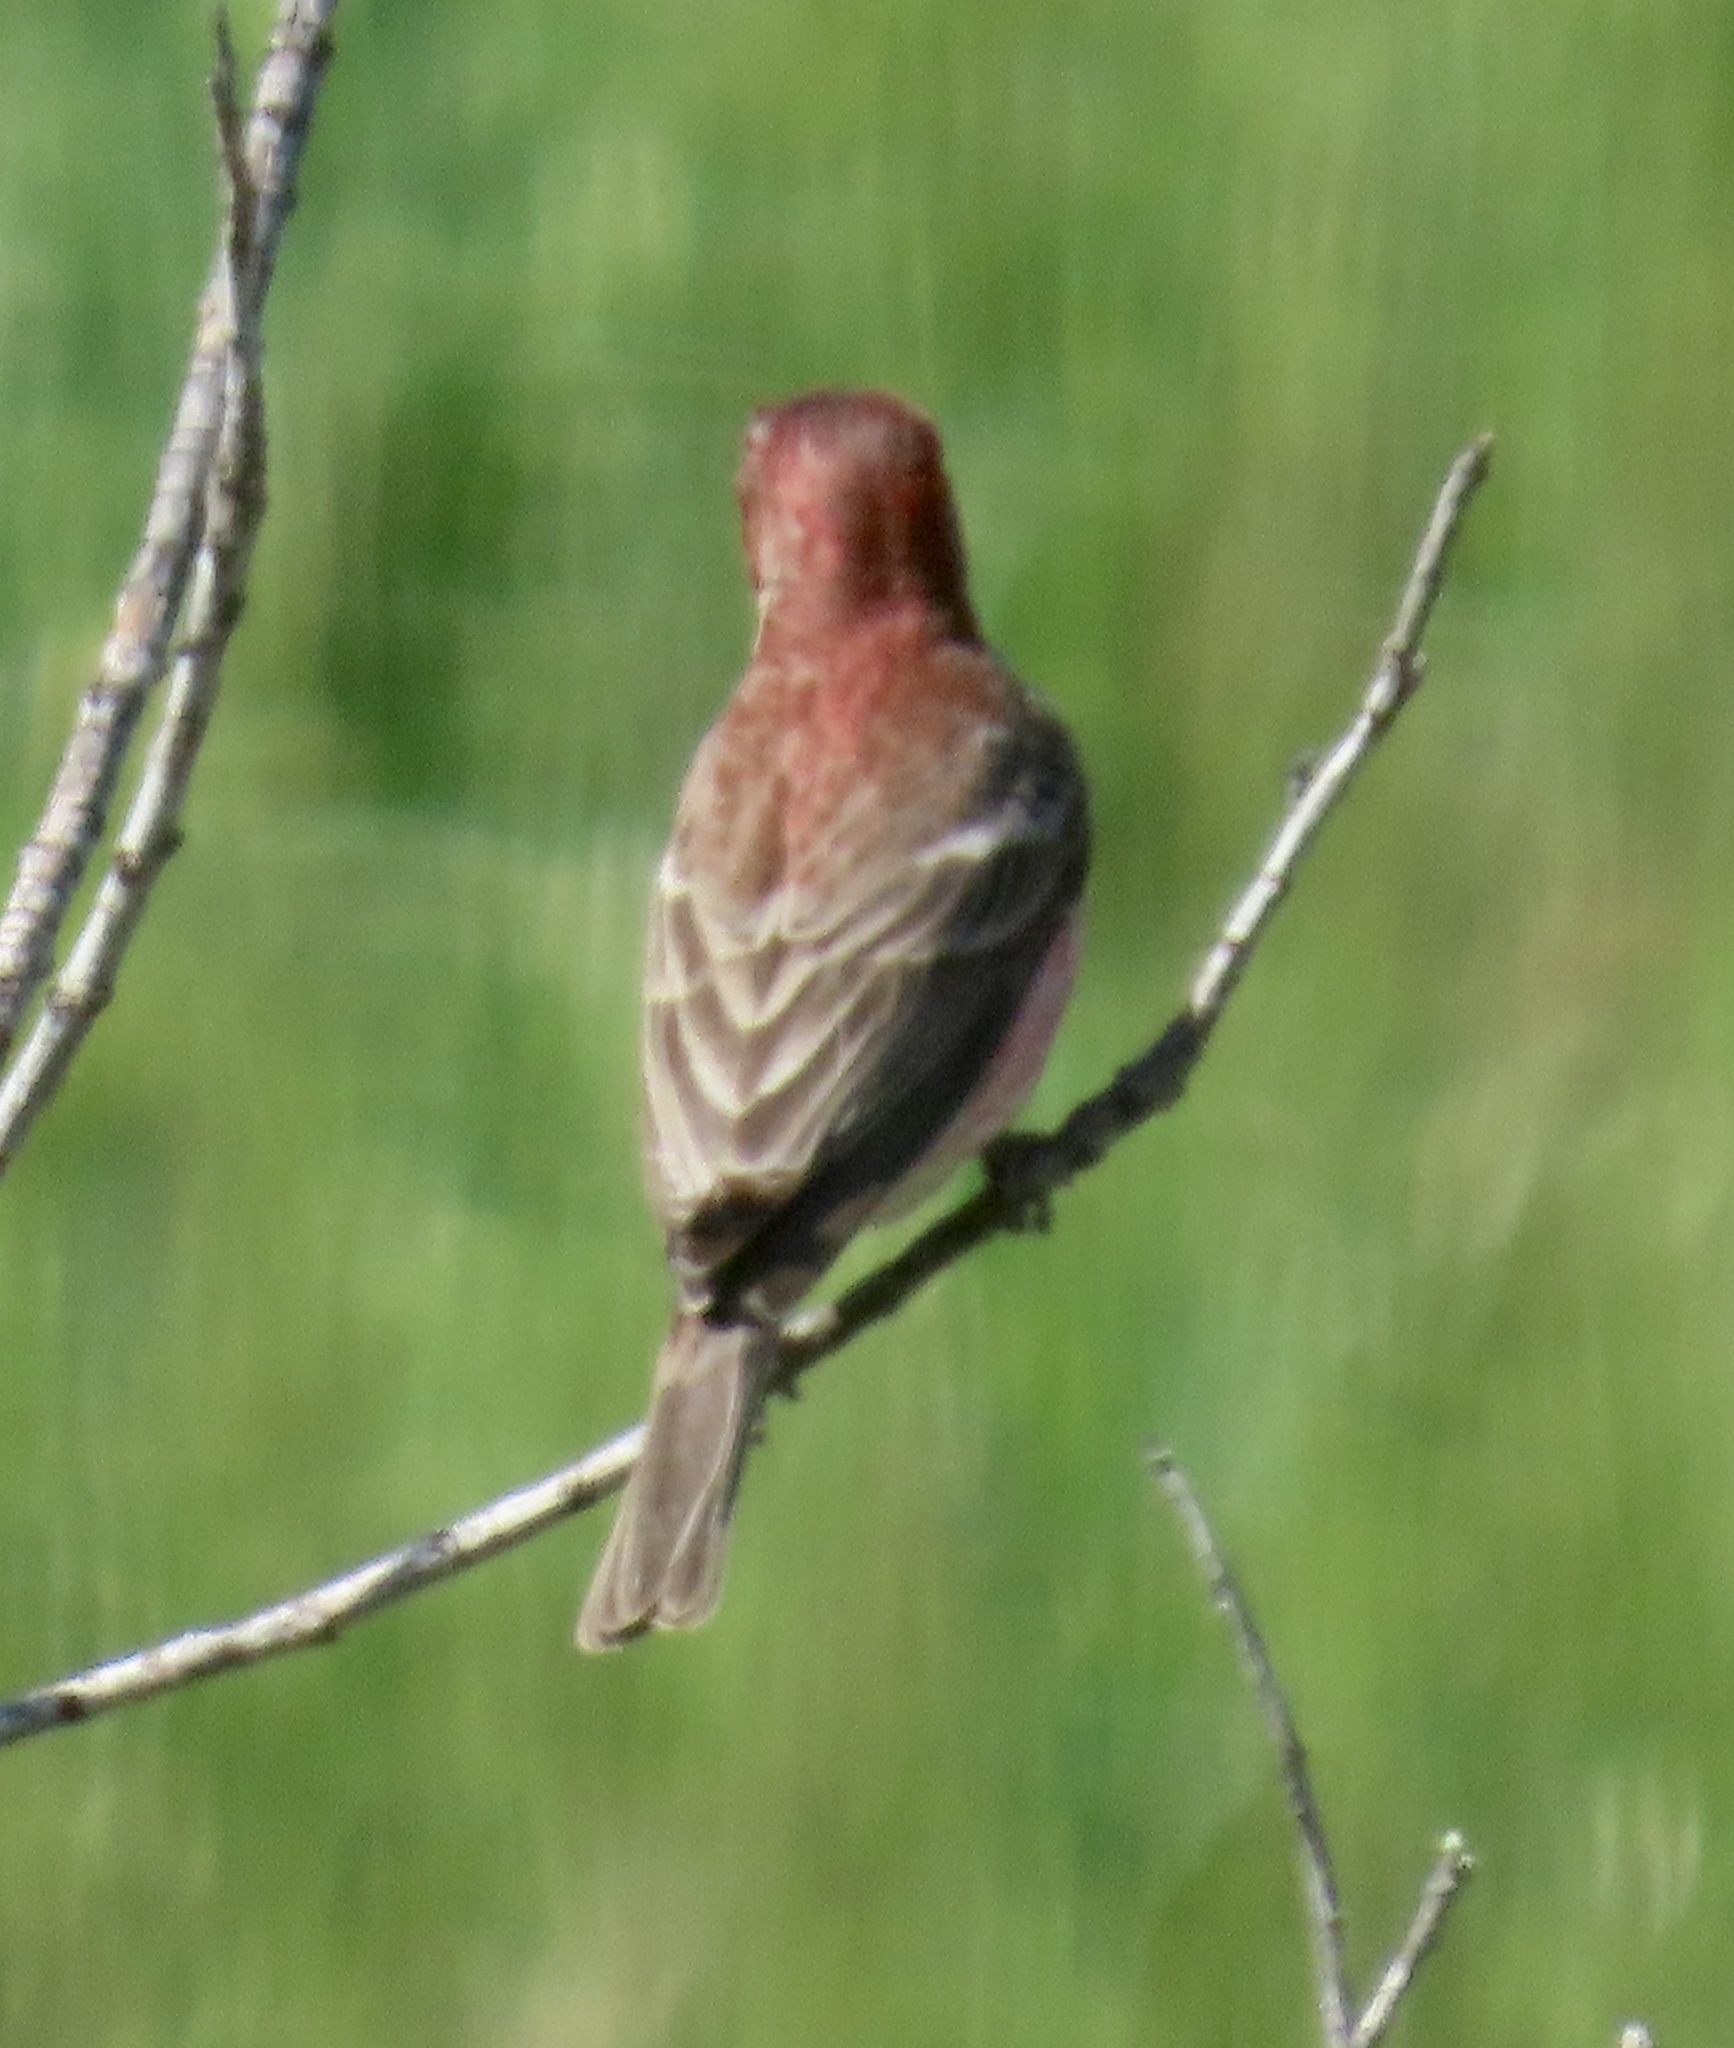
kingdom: Animalia
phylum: Chordata
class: Aves
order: Passeriformes
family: Fringillidae
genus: Haemorhous
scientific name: Haemorhous mexicanus
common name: House finch
